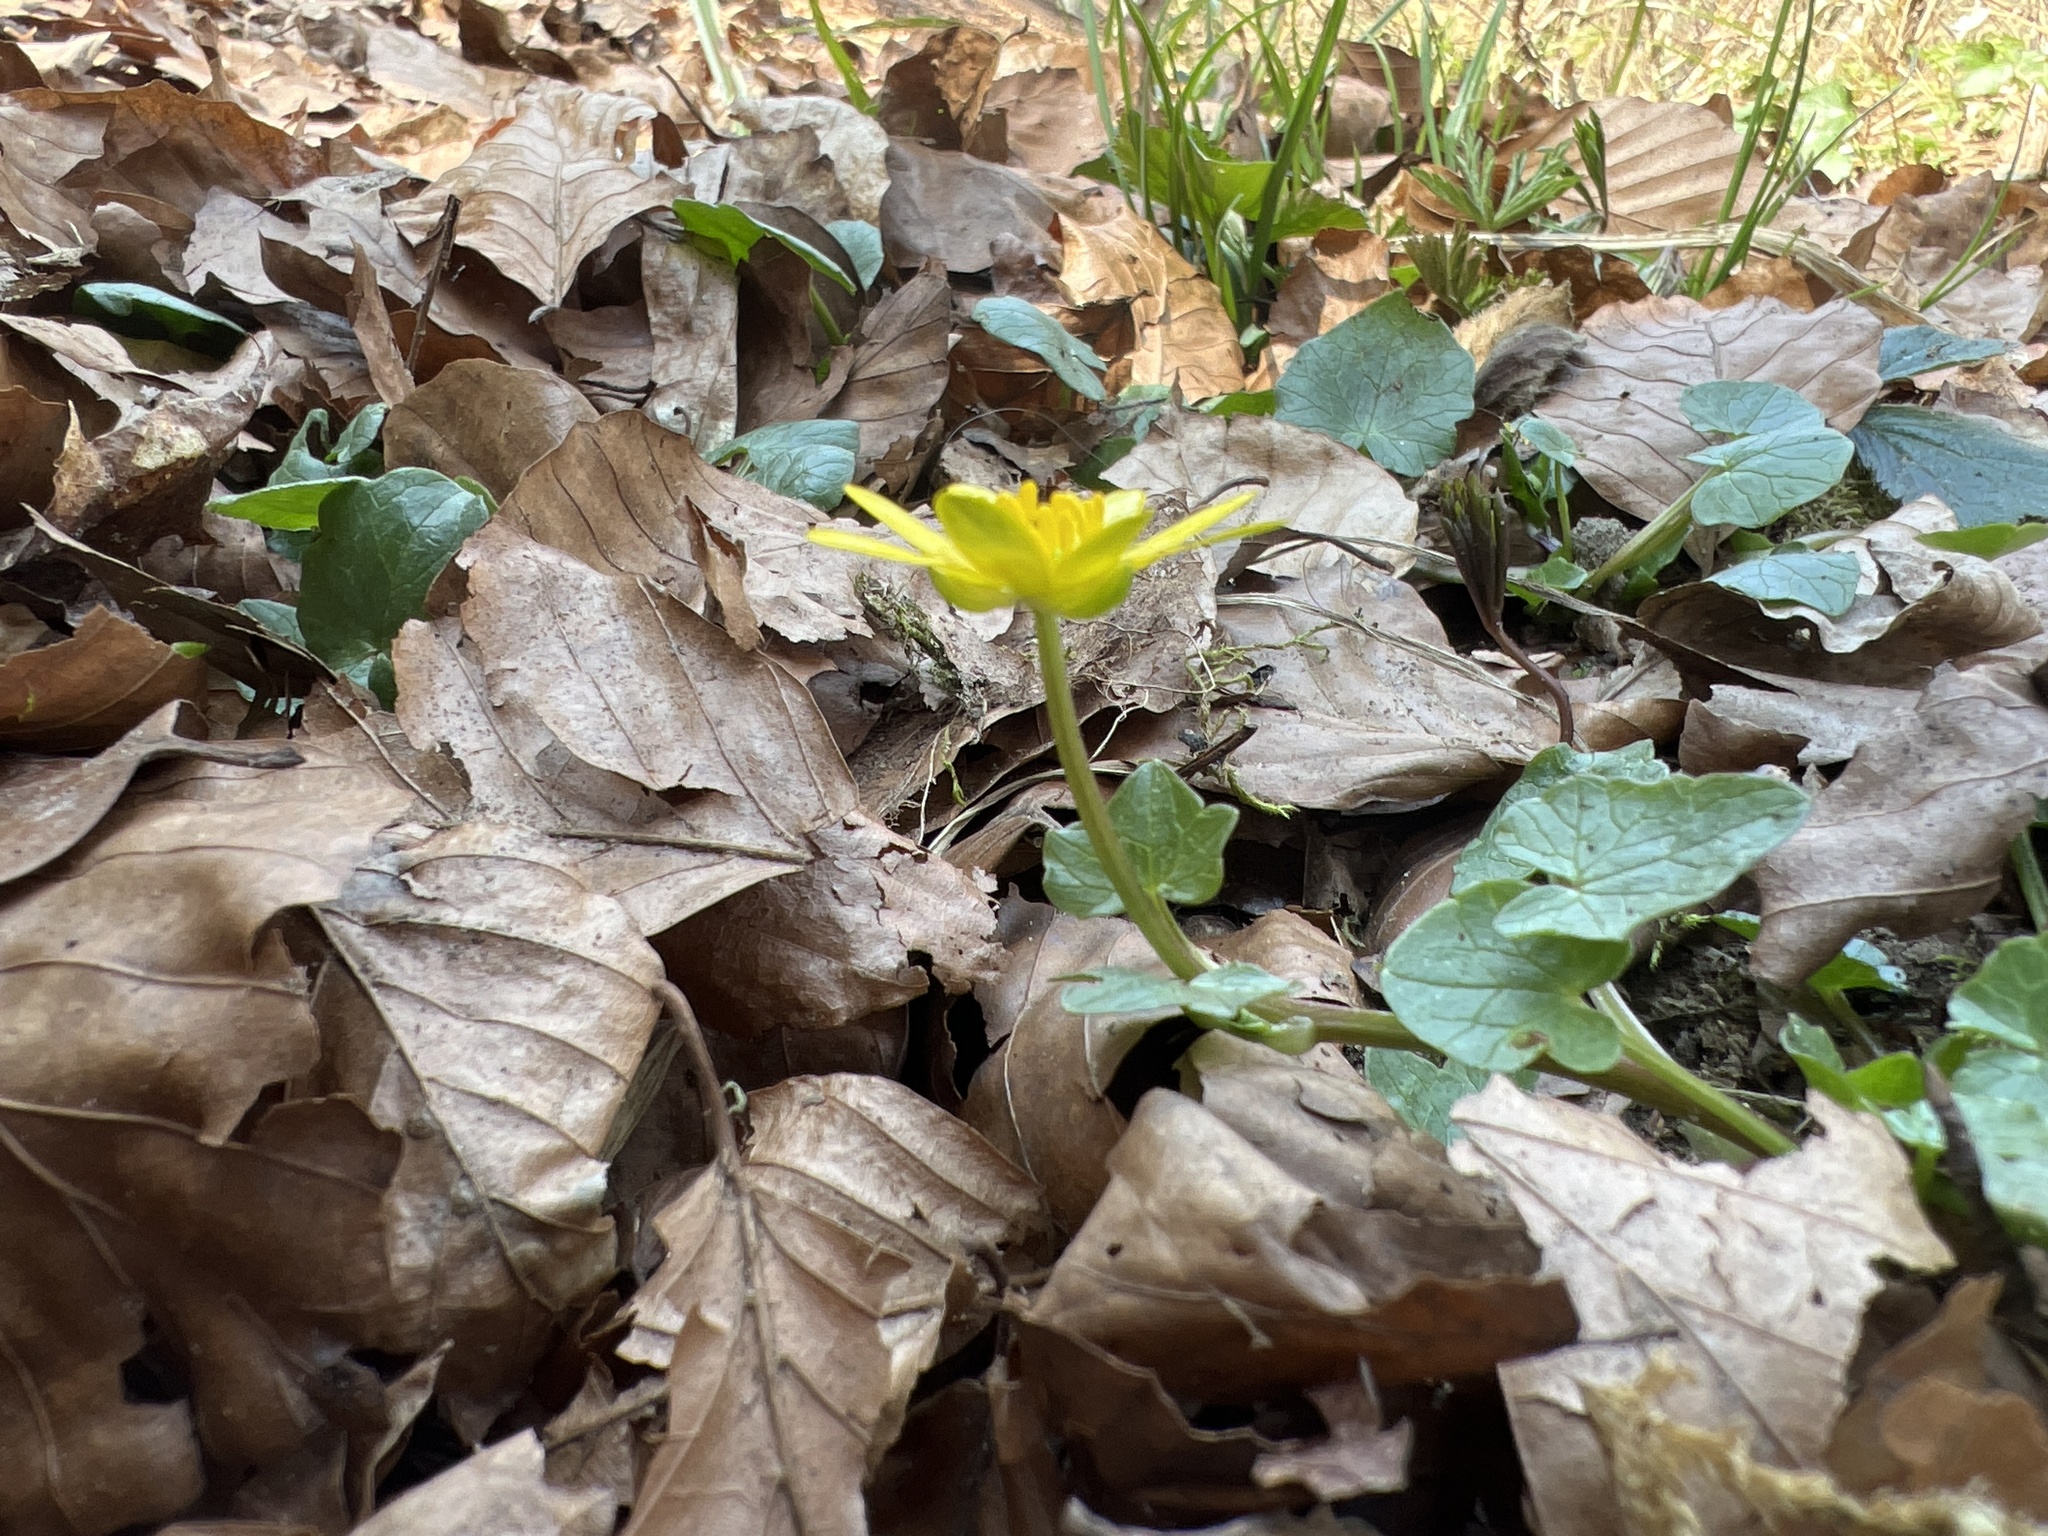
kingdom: Plantae
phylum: Tracheophyta
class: Magnoliopsida
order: Ranunculales
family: Ranunculaceae
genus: Ficaria
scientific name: Ficaria verna
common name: Lesser celandine
